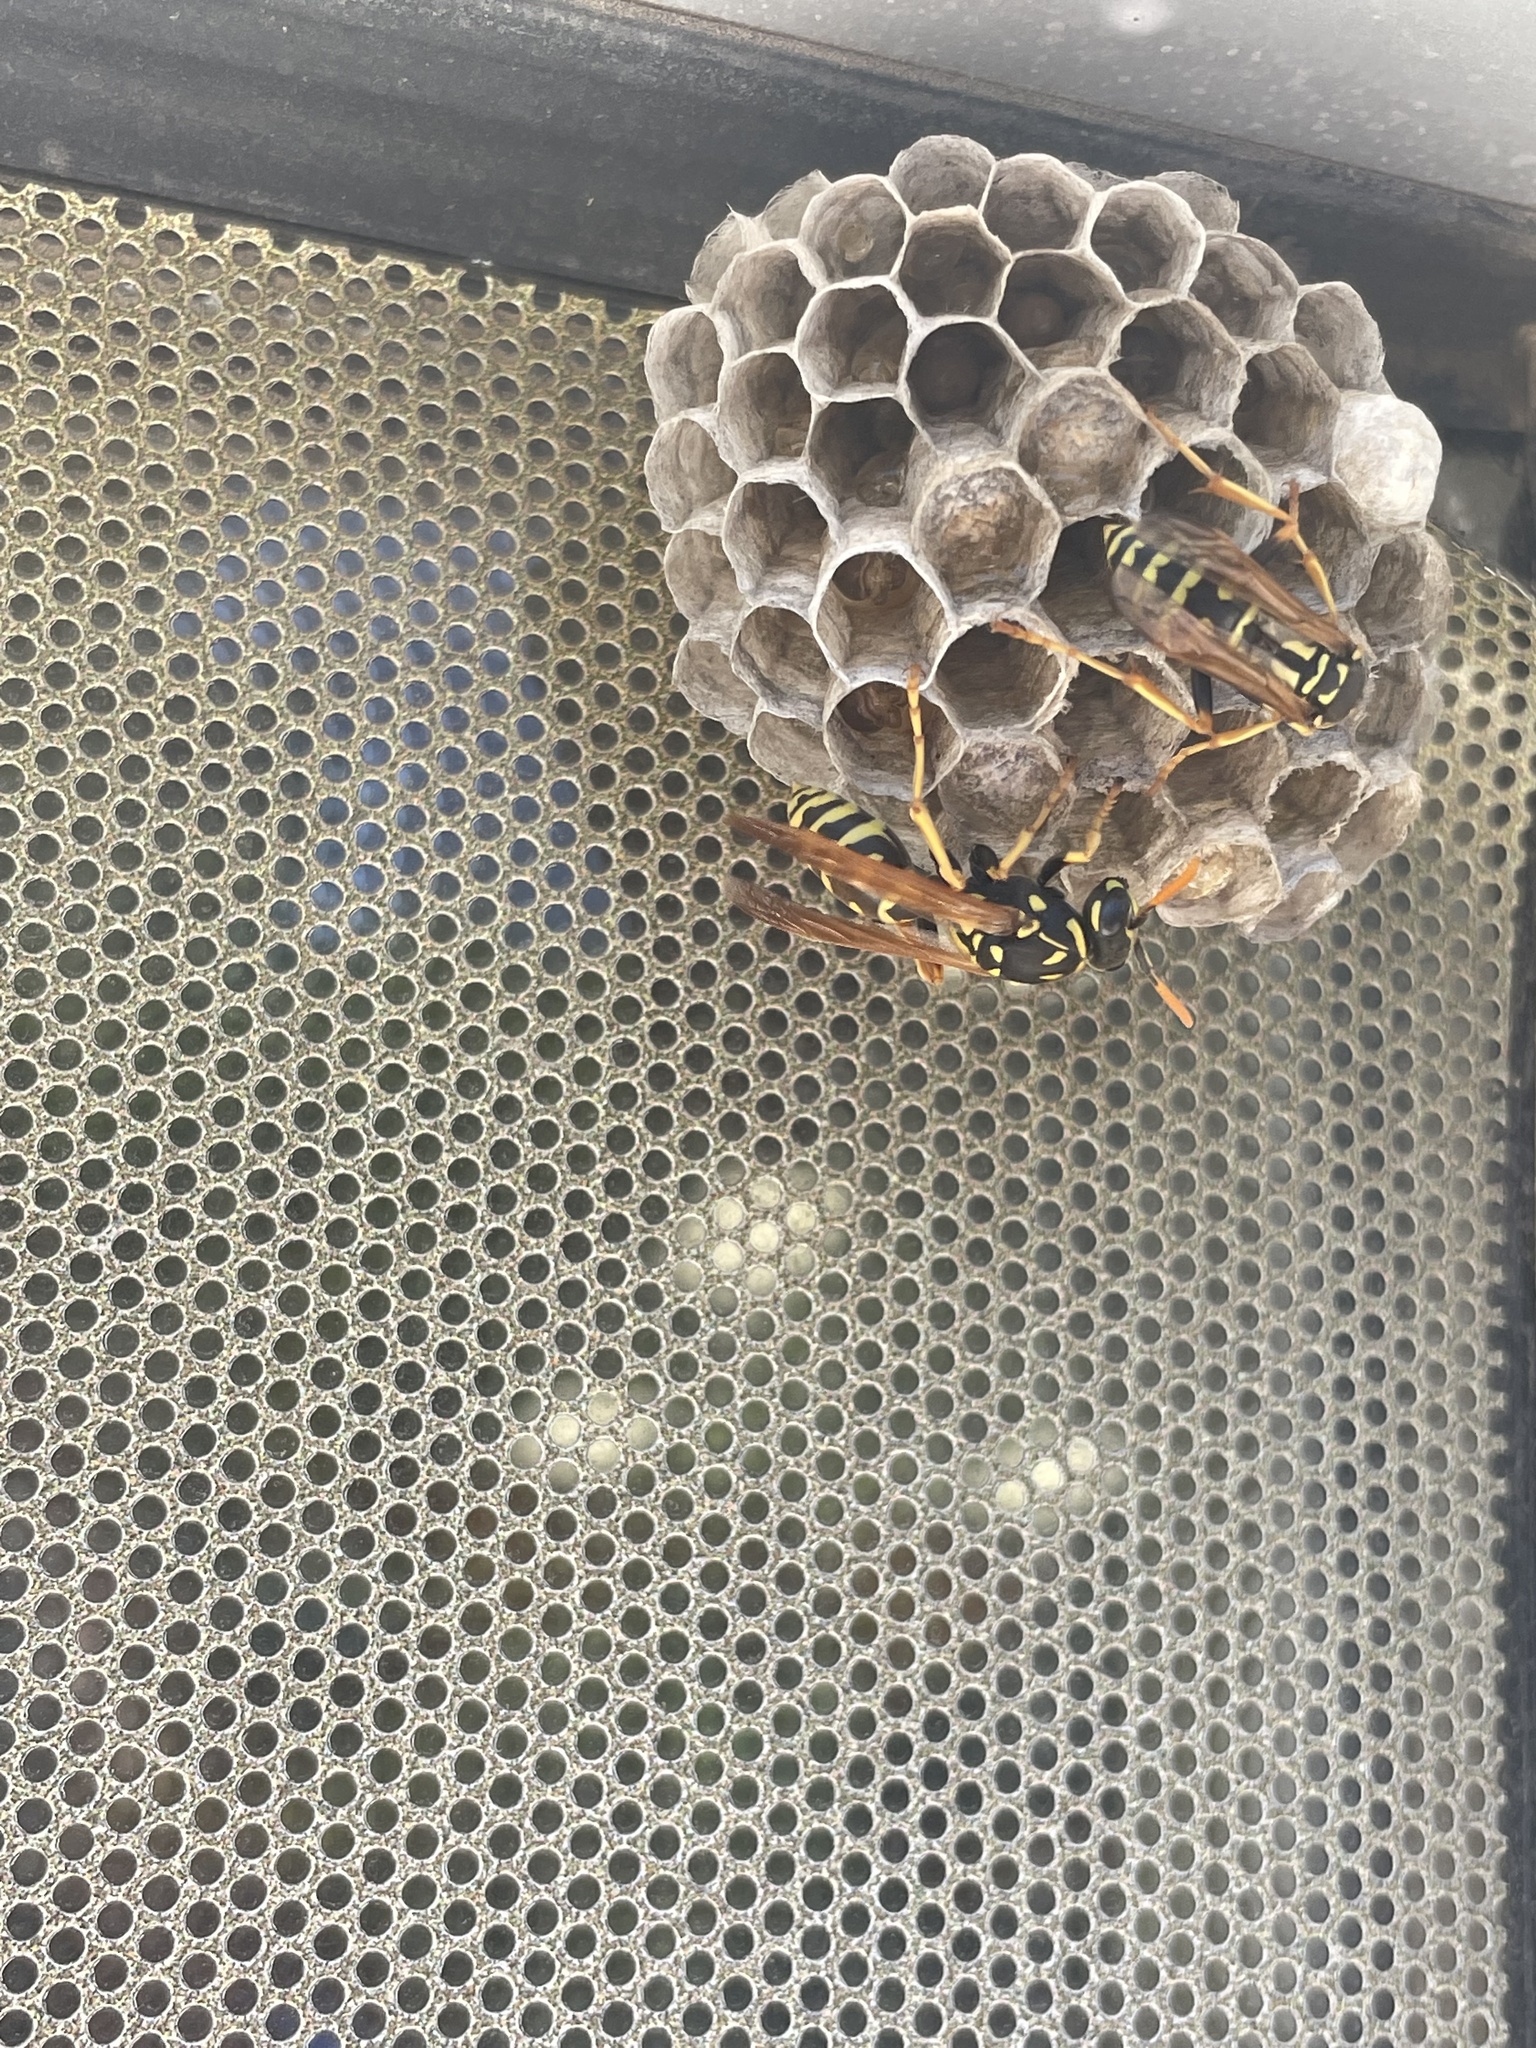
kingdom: Animalia
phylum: Arthropoda
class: Insecta
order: Hymenoptera
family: Eumenidae
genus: Polistes
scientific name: Polistes dominula
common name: Paper wasp
